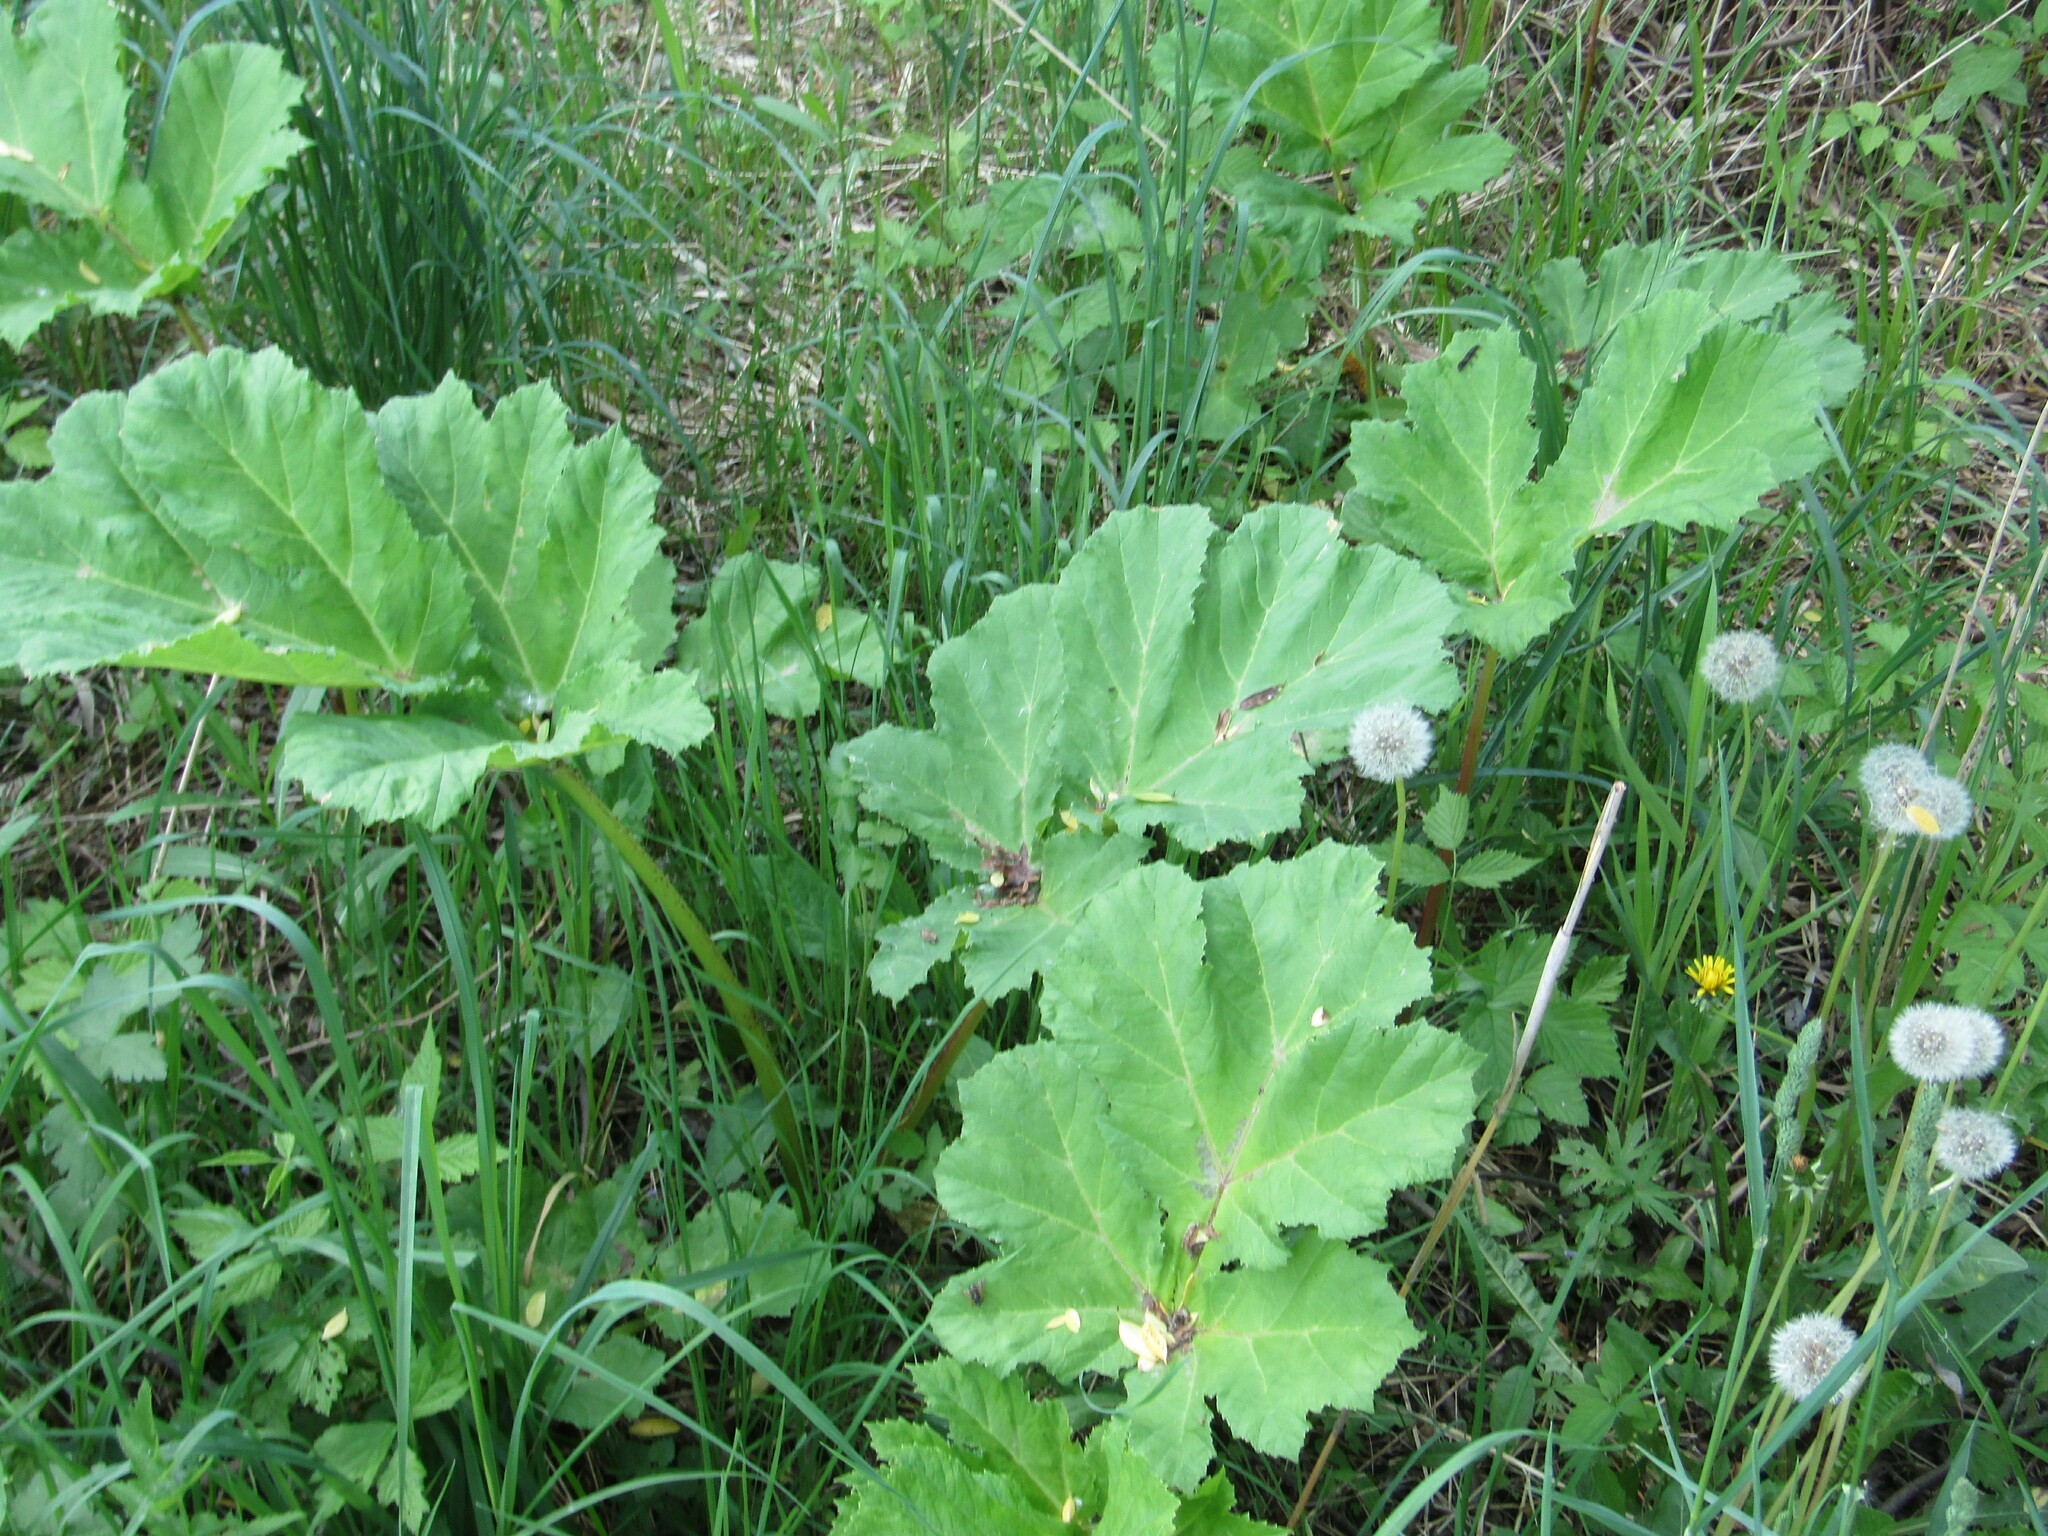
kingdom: Plantae
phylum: Tracheophyta
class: Magnoliopsida
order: Apiales
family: Apiaceae
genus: Heracleum
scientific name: Heracleum sosnowskyi
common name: Sosnowsky's hogweed
